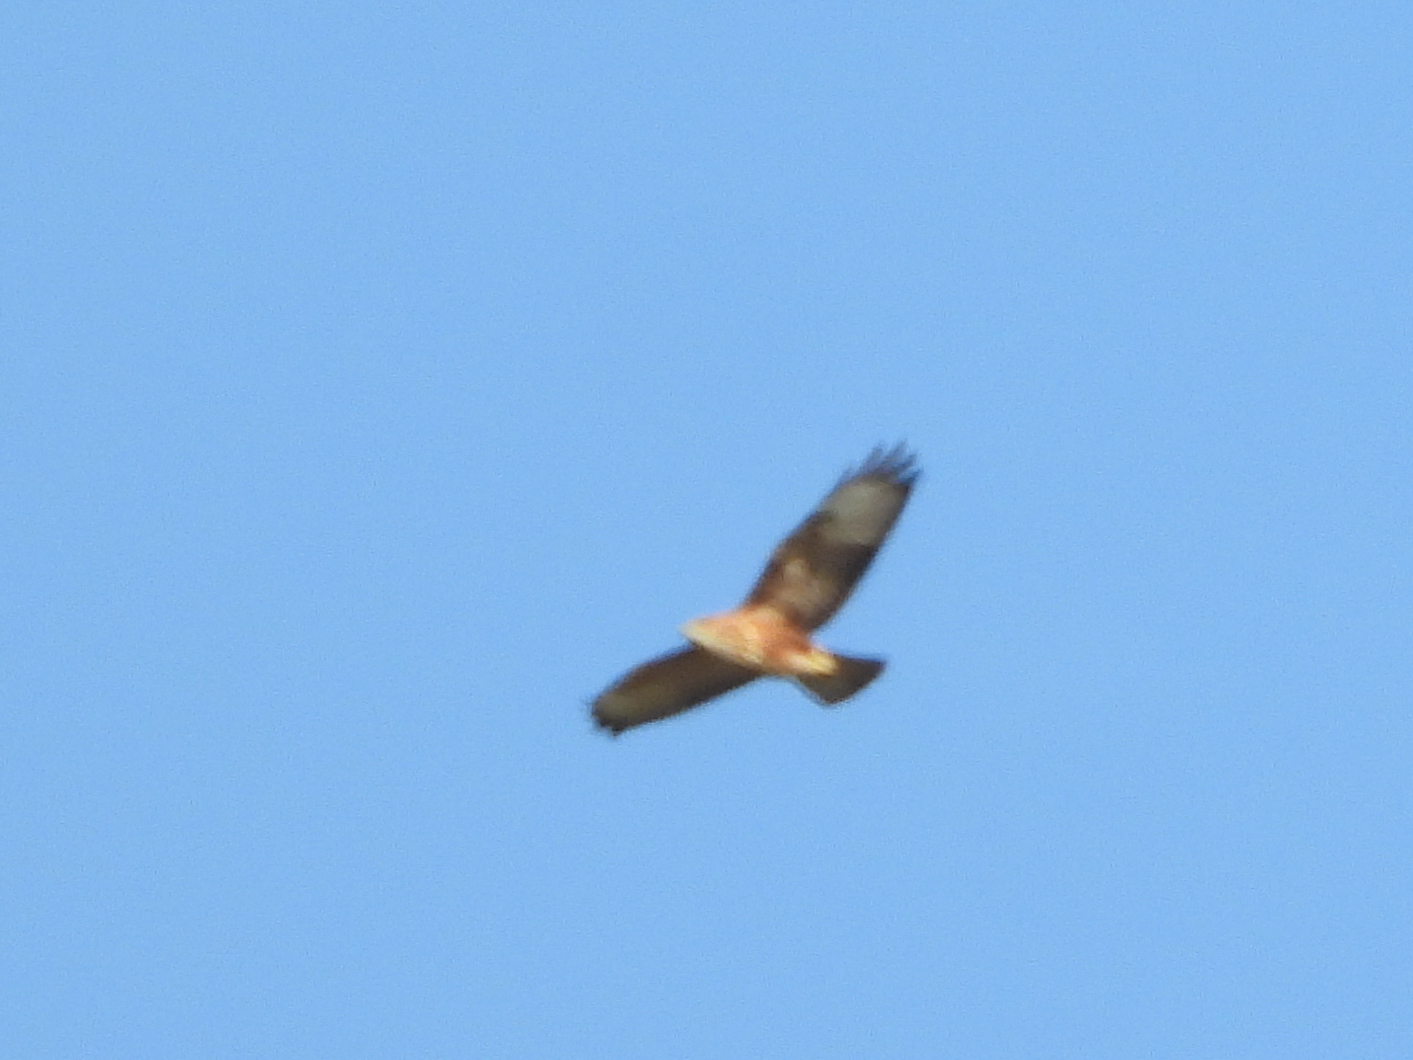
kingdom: Animalia
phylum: Chordata
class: Aves
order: Accipitriformes
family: Accipitridae
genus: Buteo
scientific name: Buteo buteo
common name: Common buzzard
